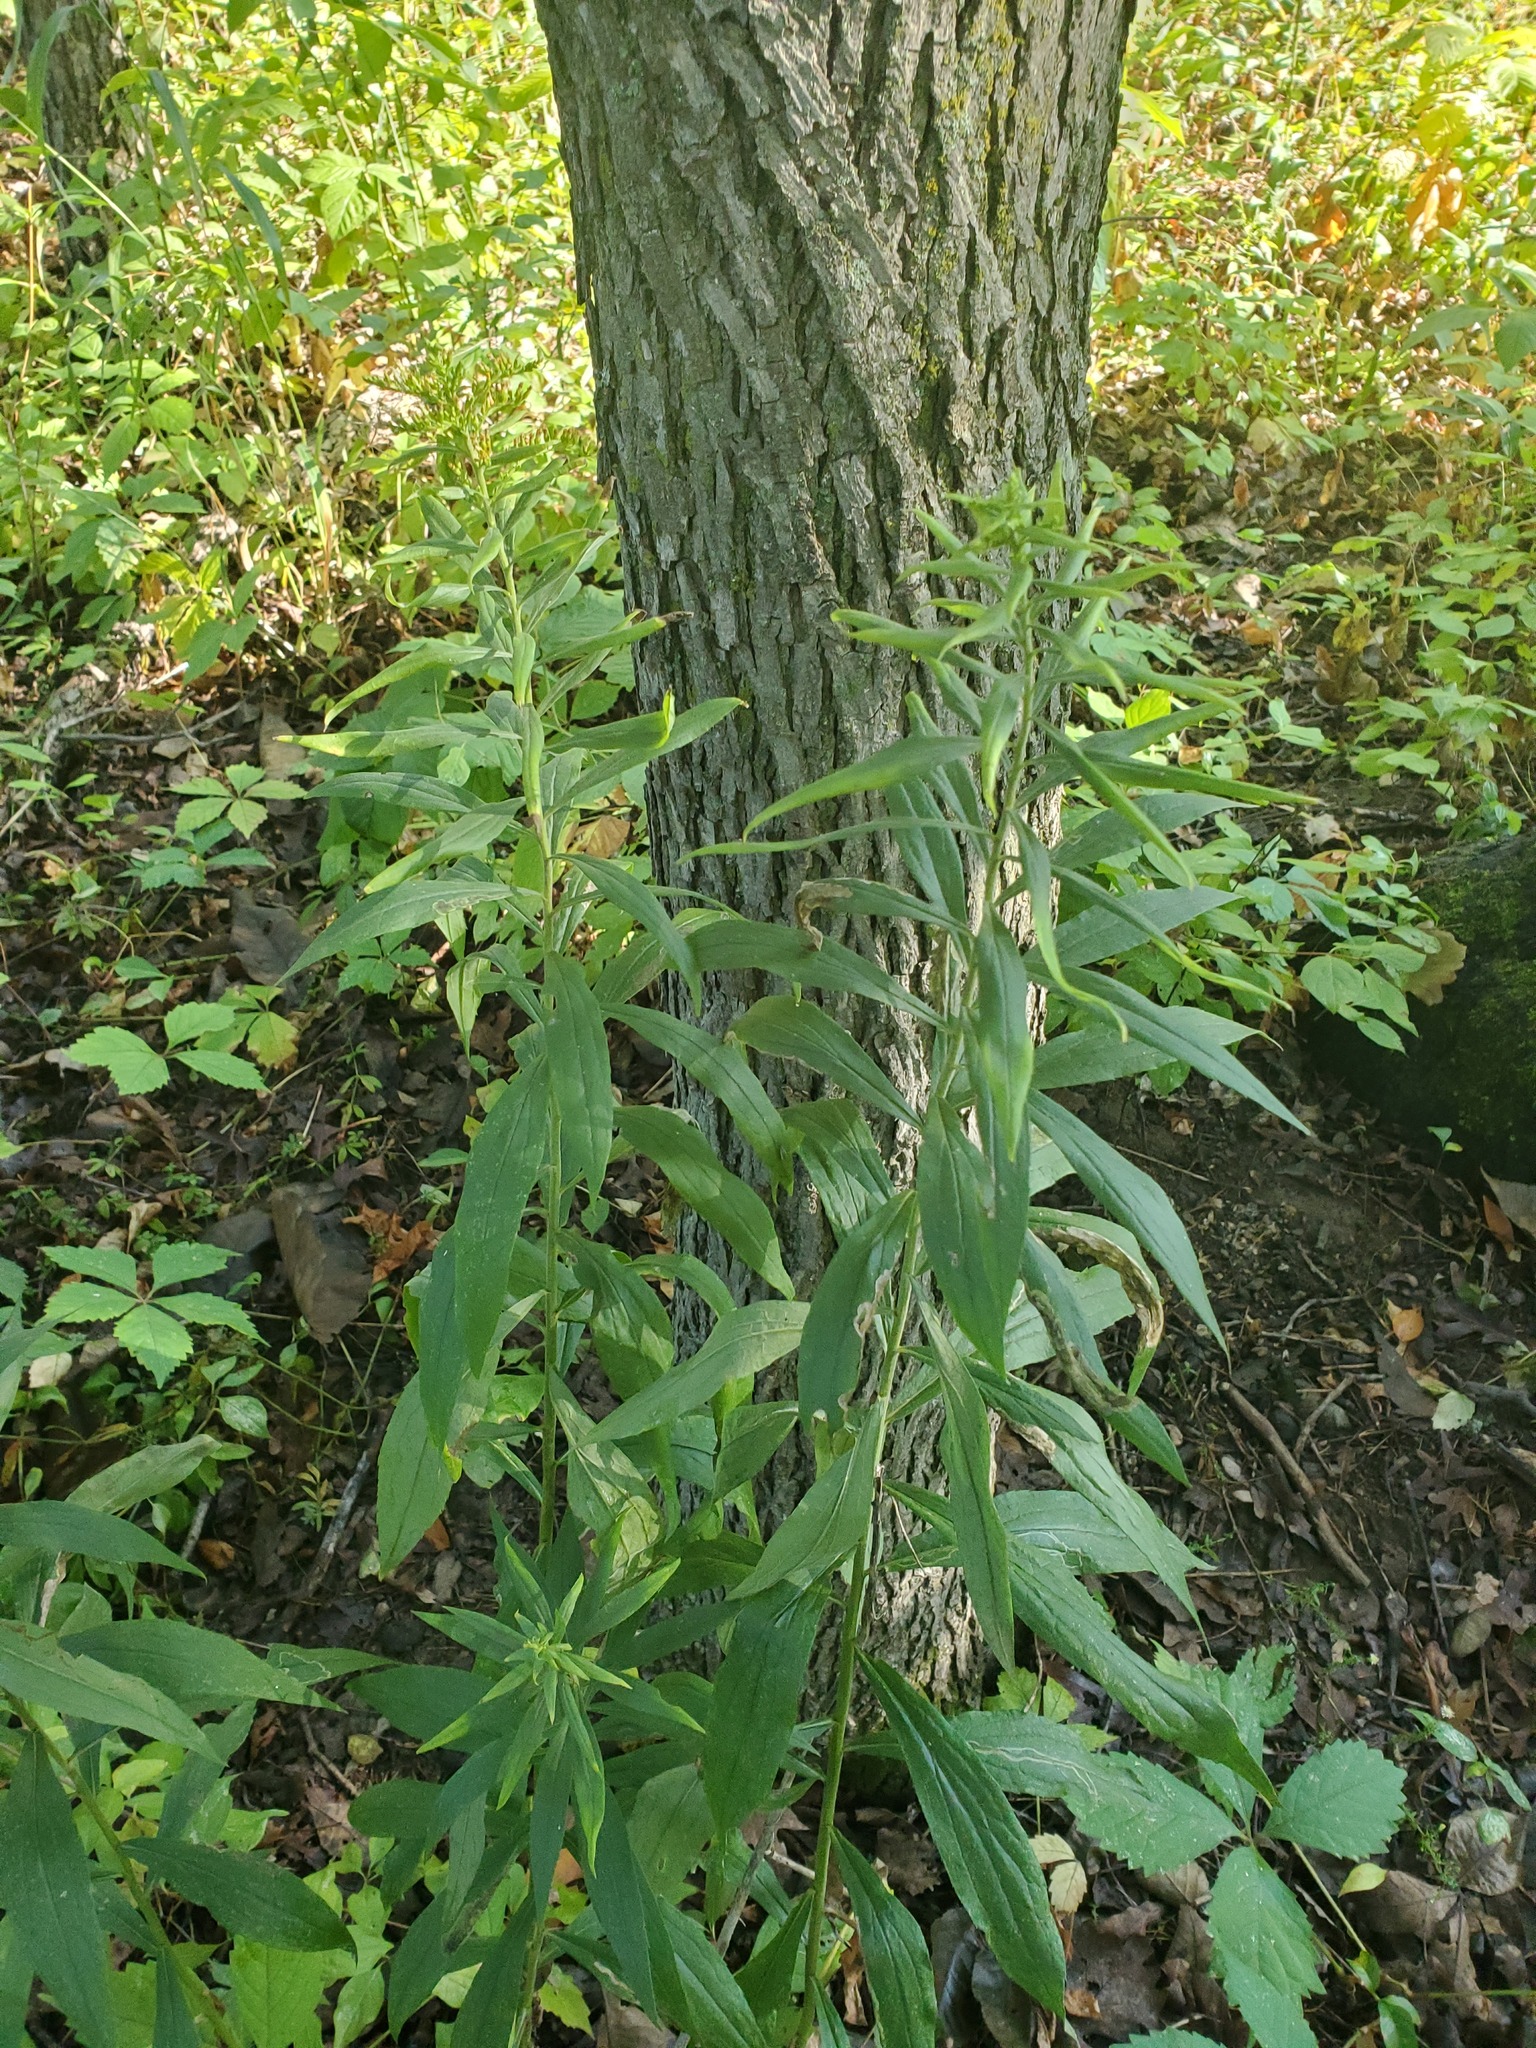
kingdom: Plantae
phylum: Tracheophyta
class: Magnoliopsida
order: Asterales
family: Asteraceae
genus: Solidago
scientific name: Solidago canadensis
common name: Canada goldenrod
